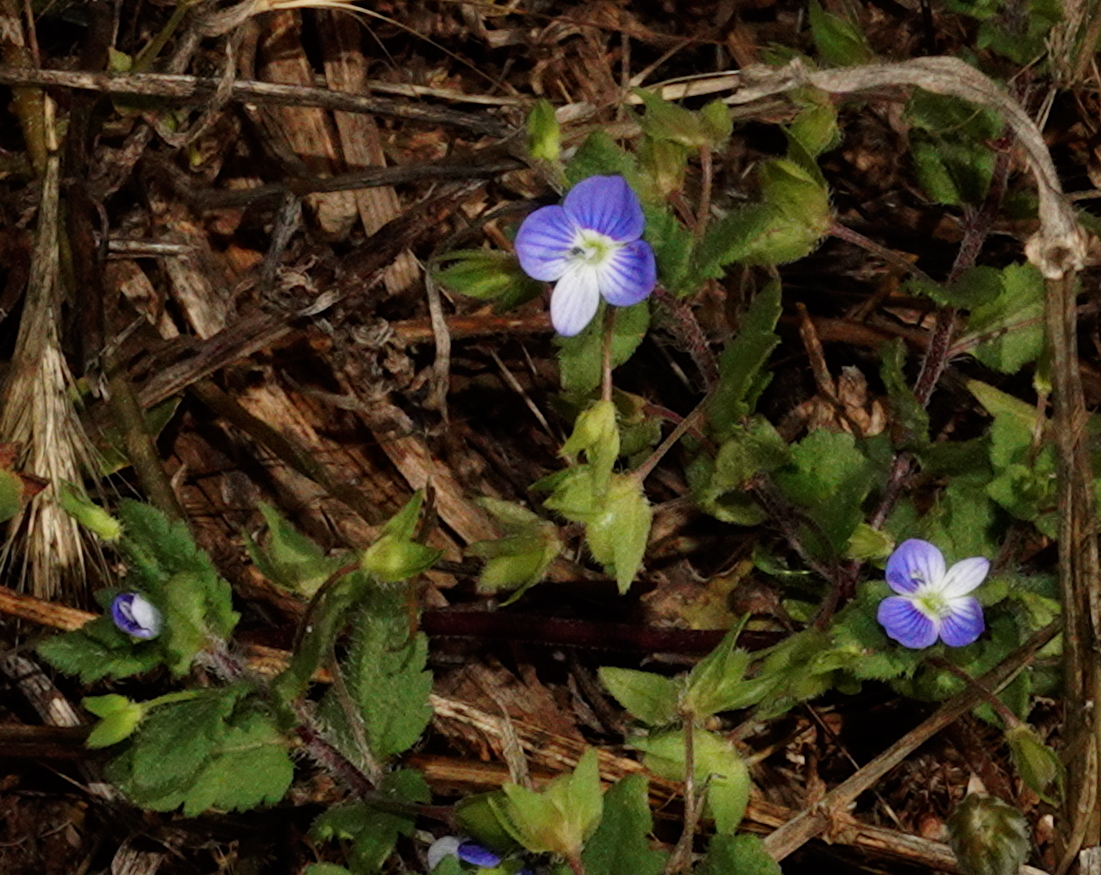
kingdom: Plantae
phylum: Tracheophyta
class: Magnoliopsida
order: Lamiales
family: Plantaginaceae
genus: Veronica
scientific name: Veronica persica
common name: Common field-speedwell
